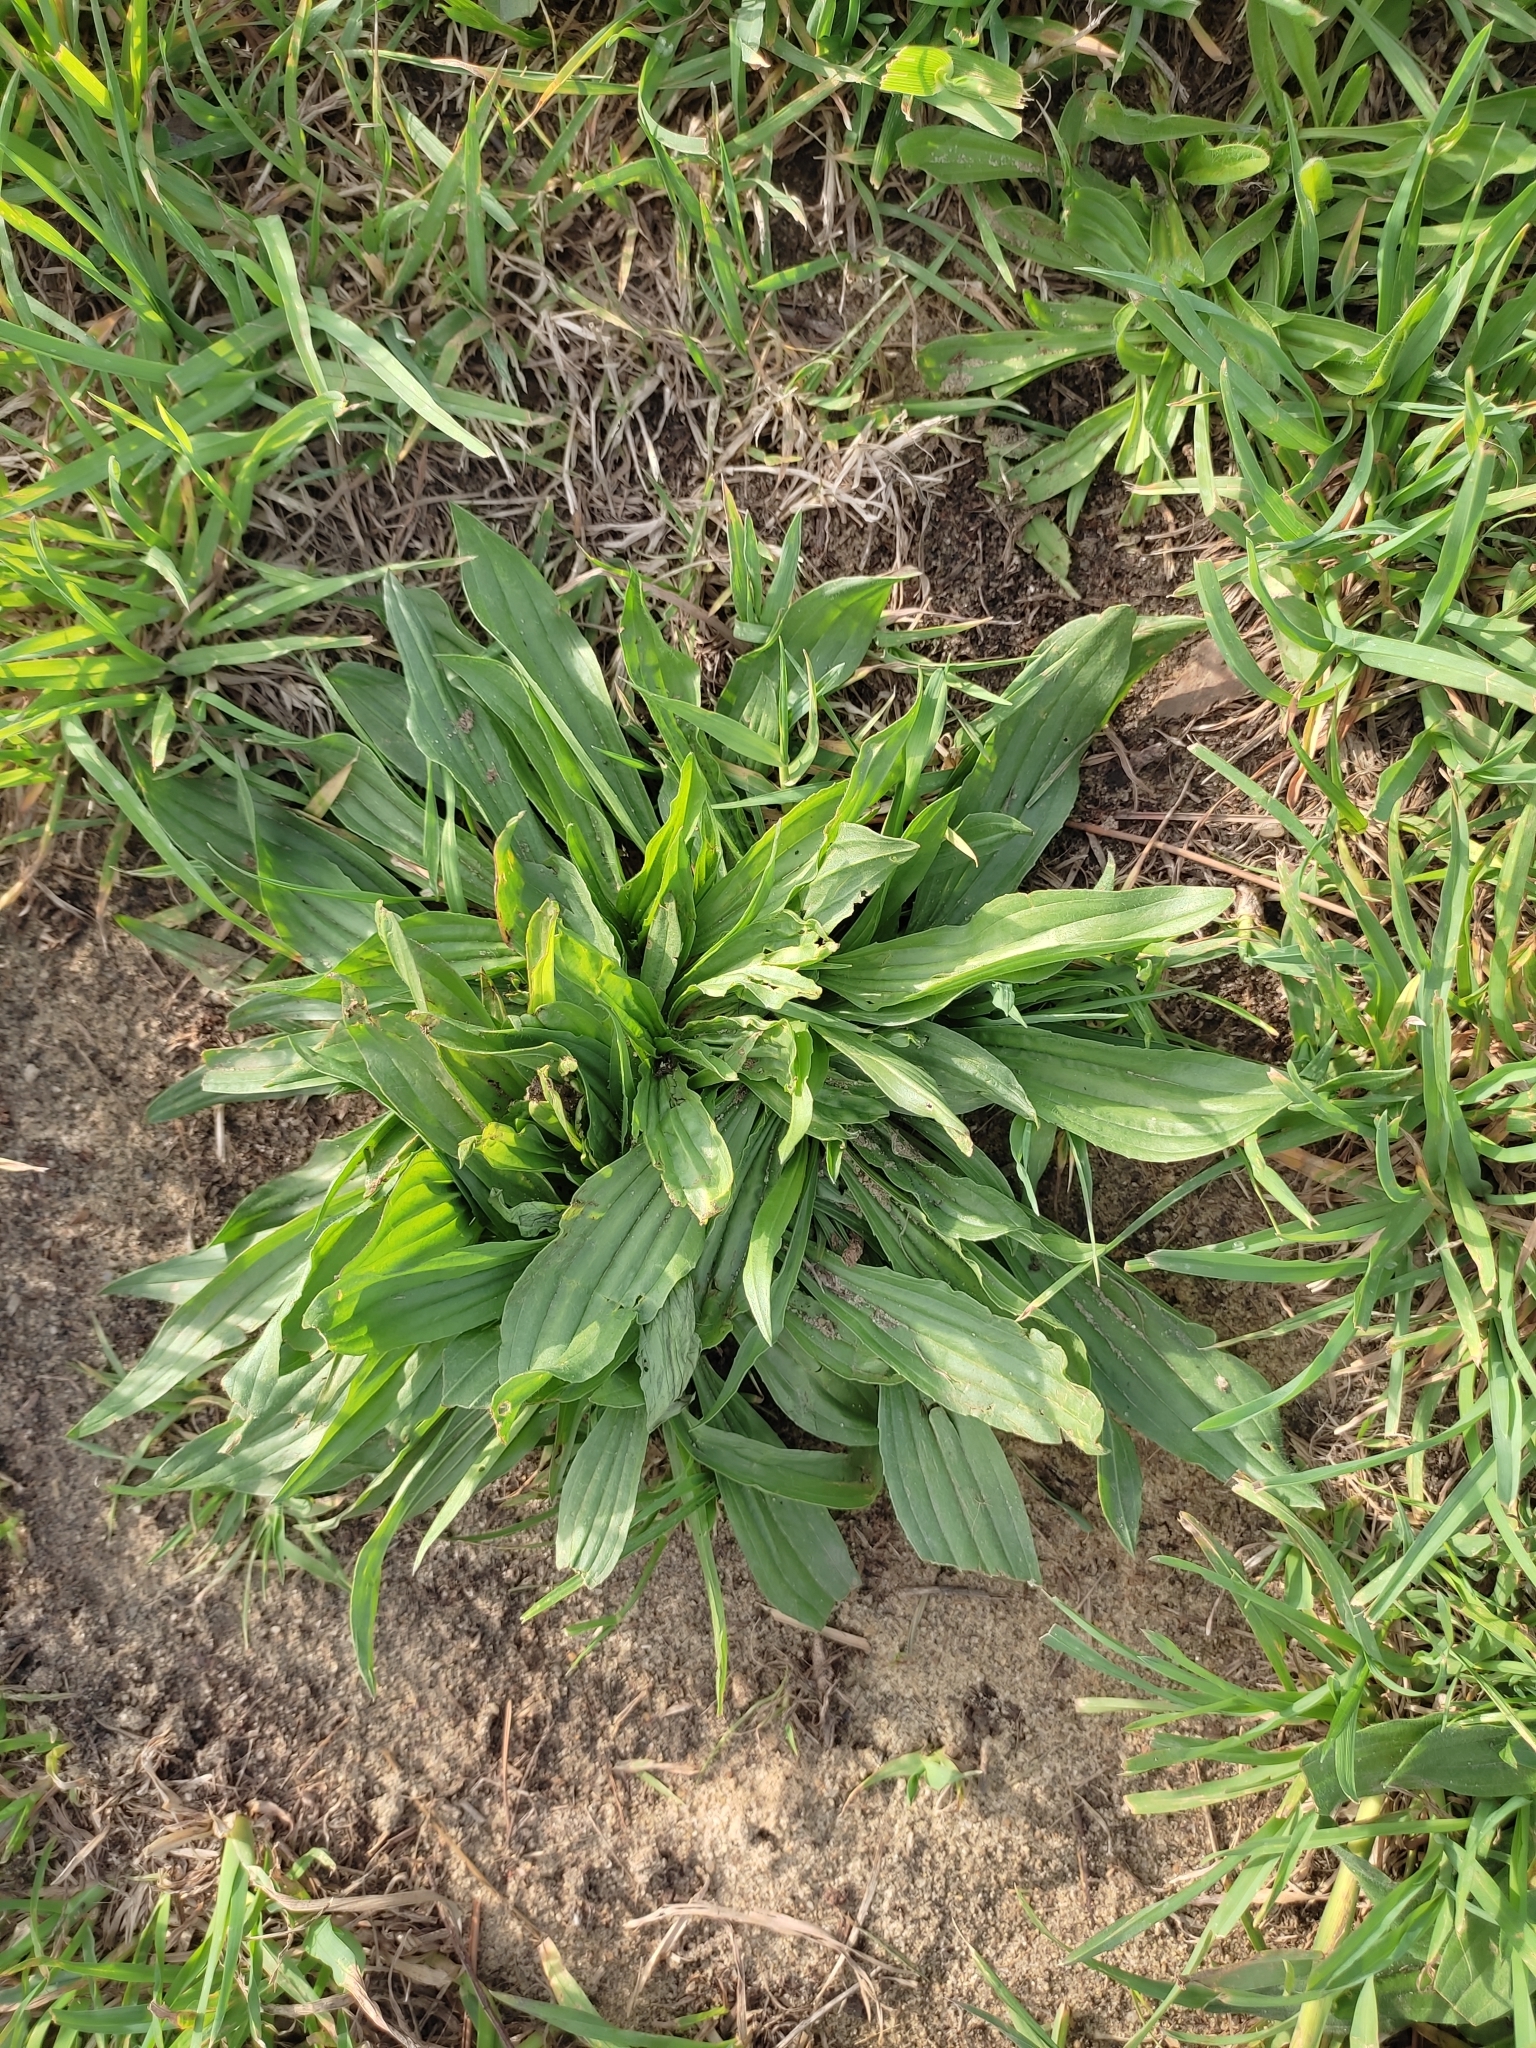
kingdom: Plantae
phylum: Tracheophyta
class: Magnoliopsida
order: Lamiales
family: Plantaginaceae
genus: Plantago
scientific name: Plantago lanceolata
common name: Ribwort plantain
